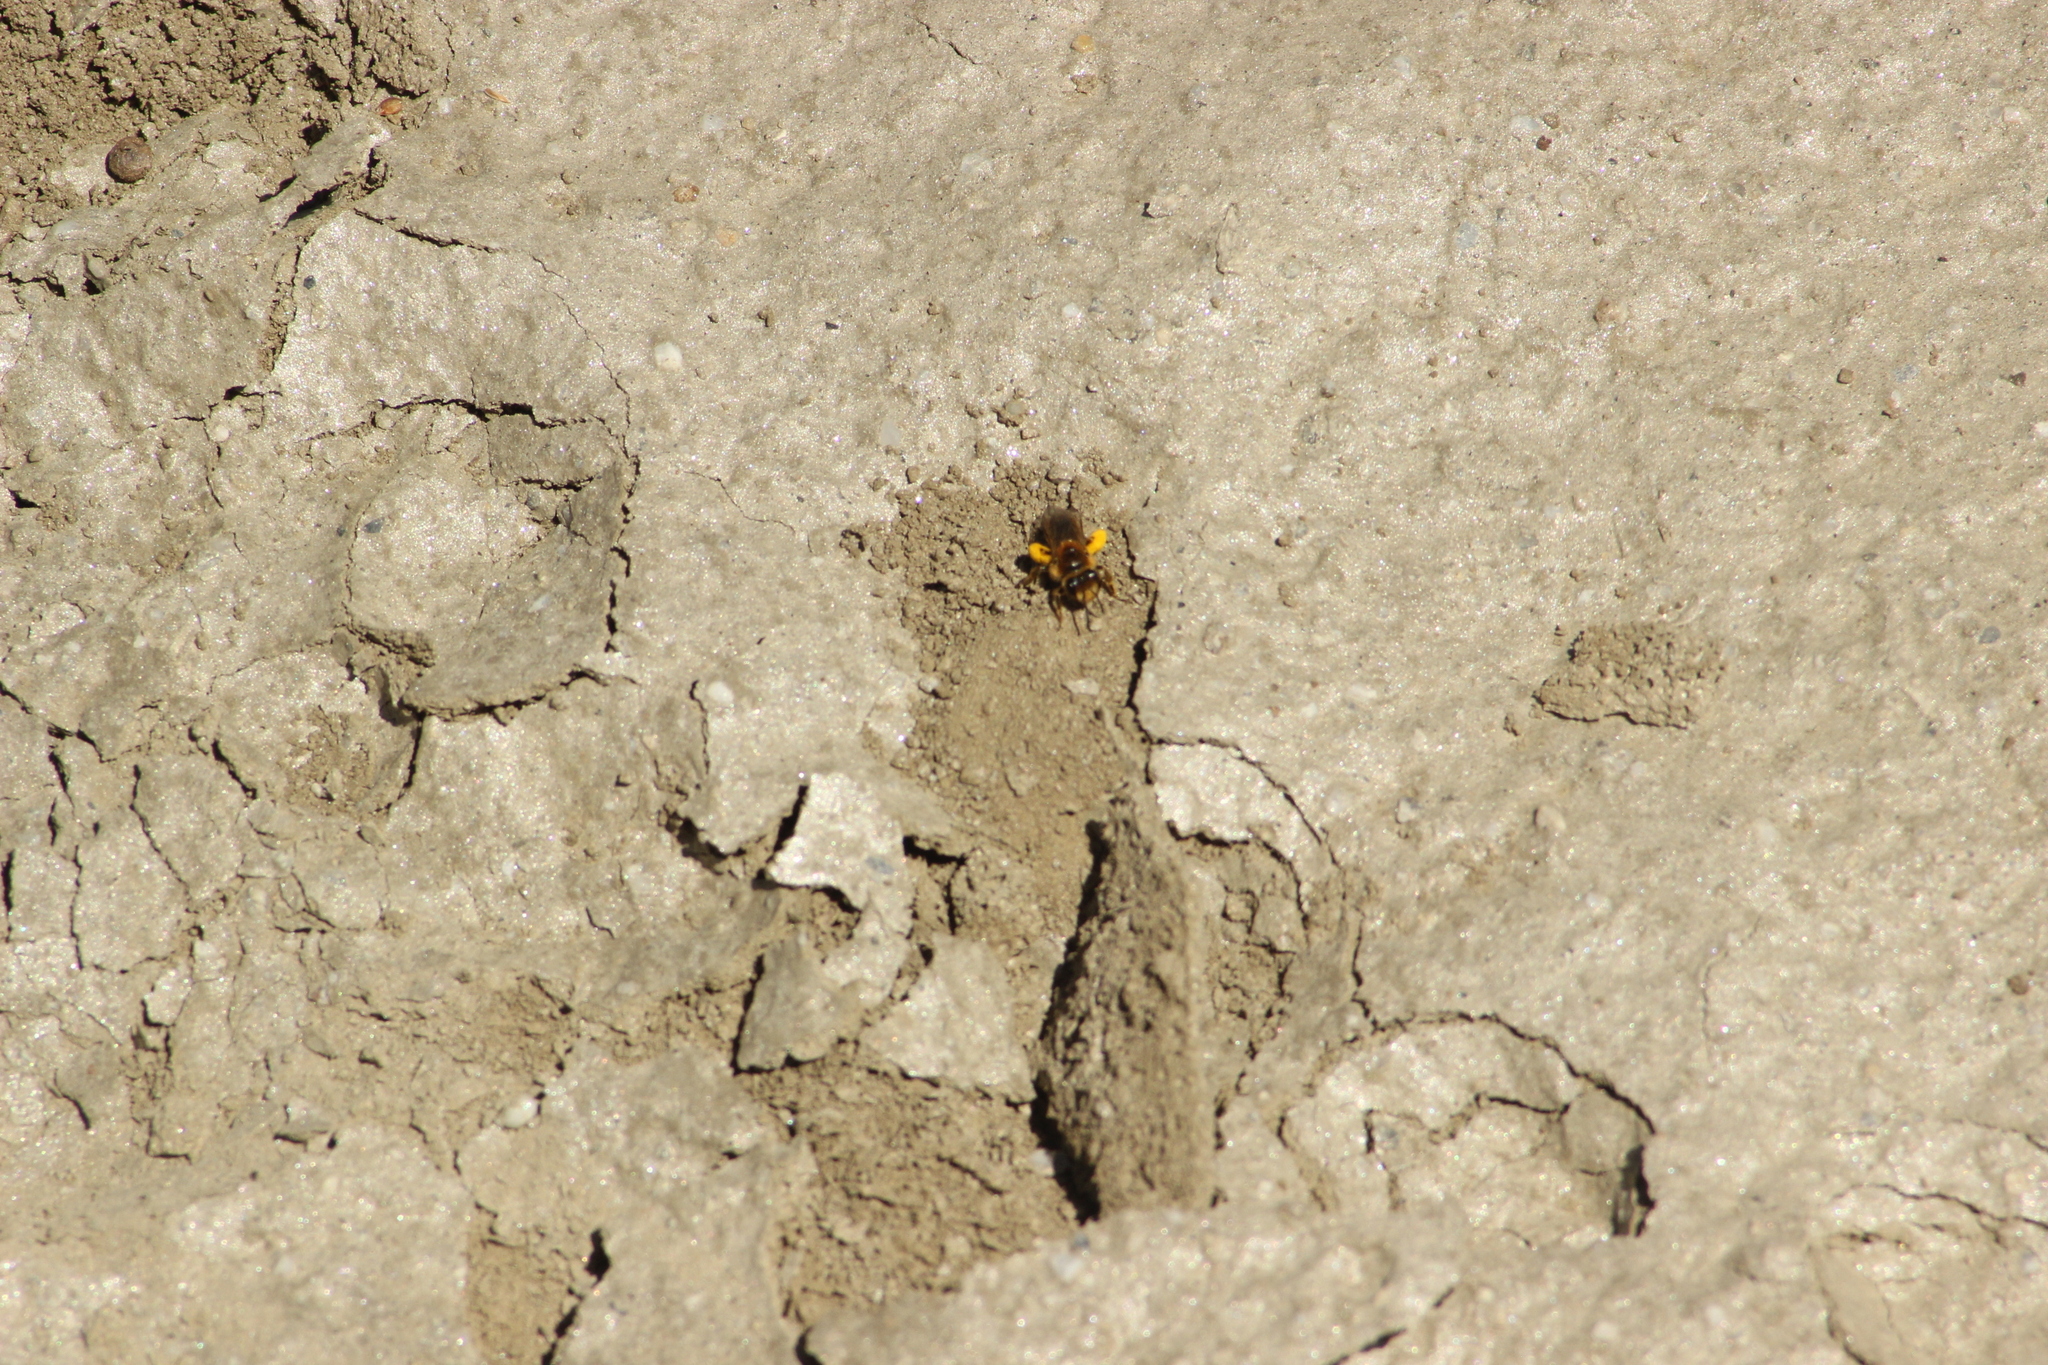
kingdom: Animalia
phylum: Arthropoda
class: Insecta
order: Hymenoptera
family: Colletidae
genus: Leioproctus
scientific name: Leioproctus fulvescens
